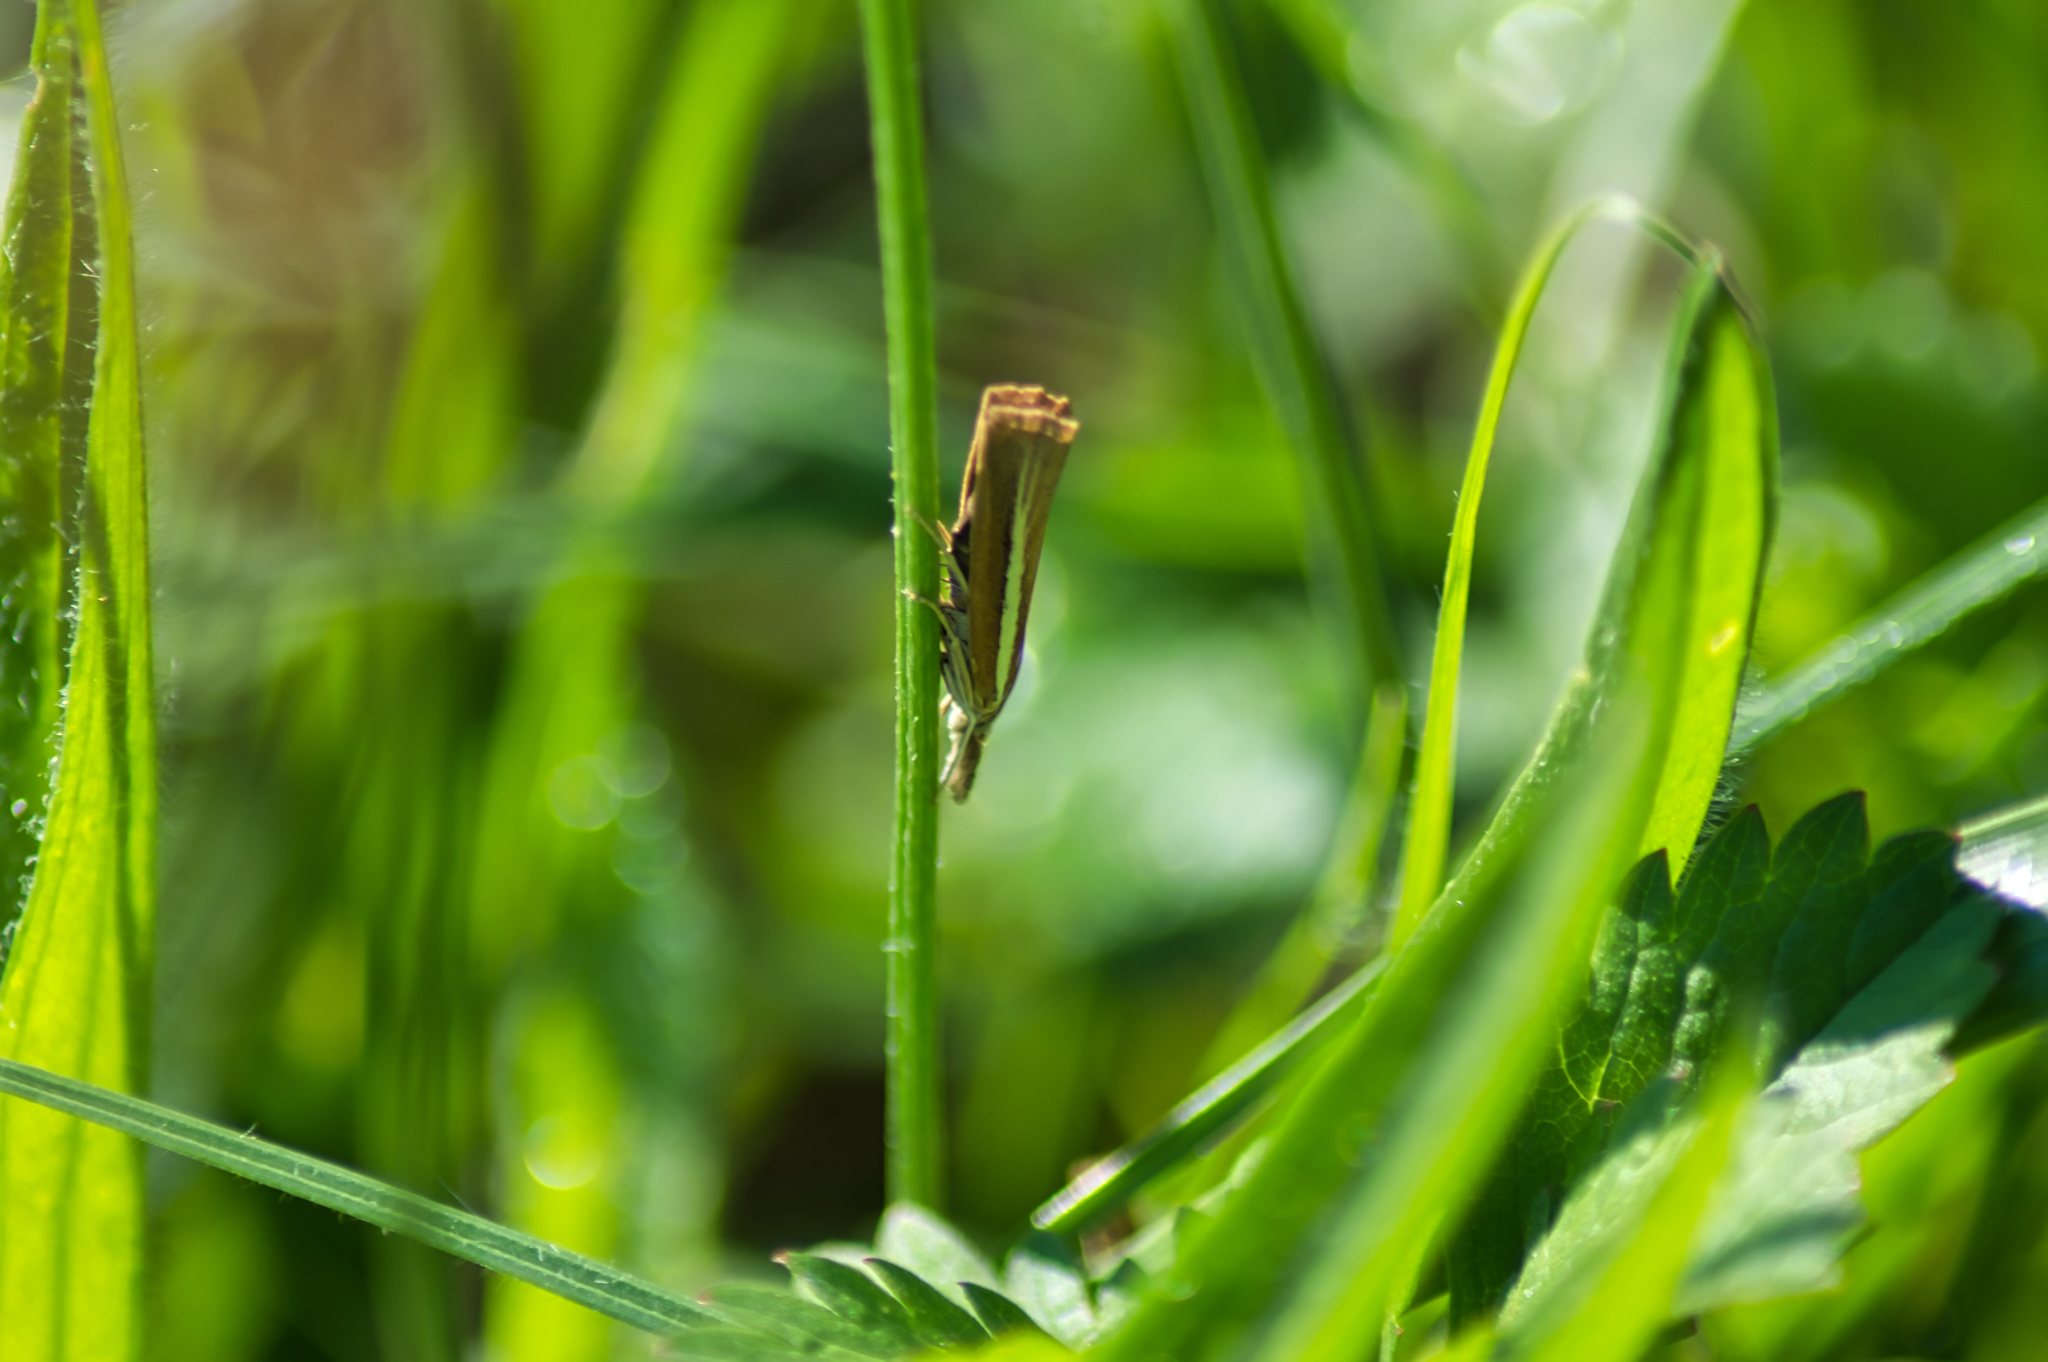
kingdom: Animalia
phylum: Arthropoda
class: Insecta
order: Lepidoptera
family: Crambidae
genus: Agriphila
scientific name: Agriphila tristellus
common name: Common grass-veneer
